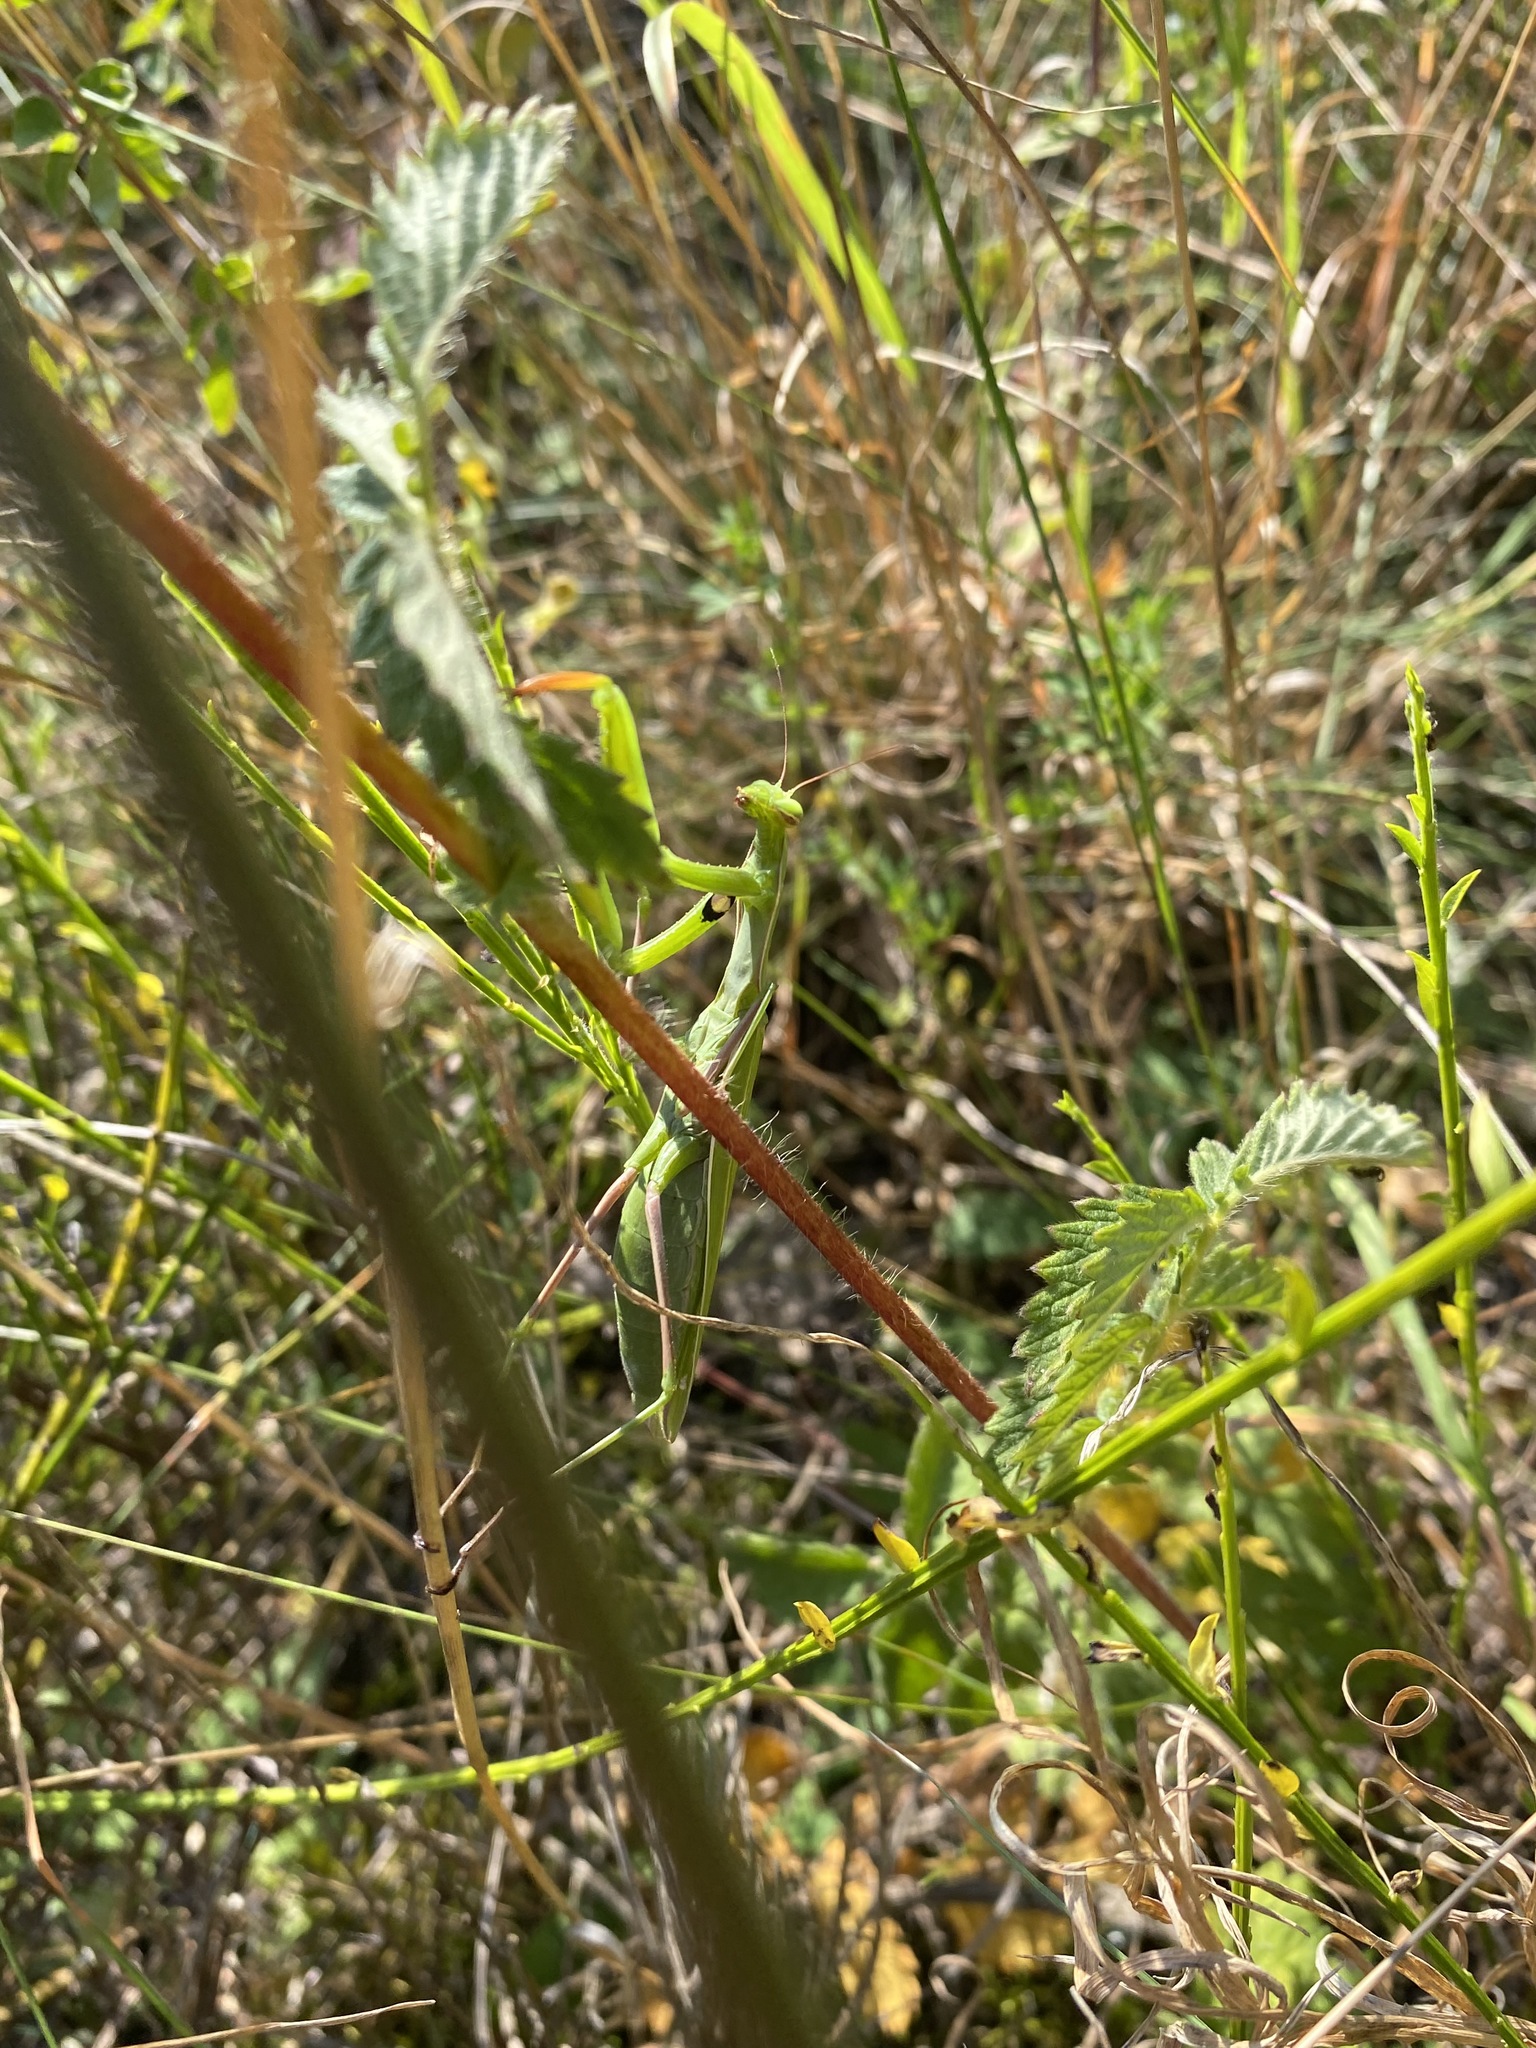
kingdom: Animalia
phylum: Arthropoda
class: Insecta
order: Mantodea
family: Mantidae
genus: Mantis
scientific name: Mantis religiosa
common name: Praying mantis
